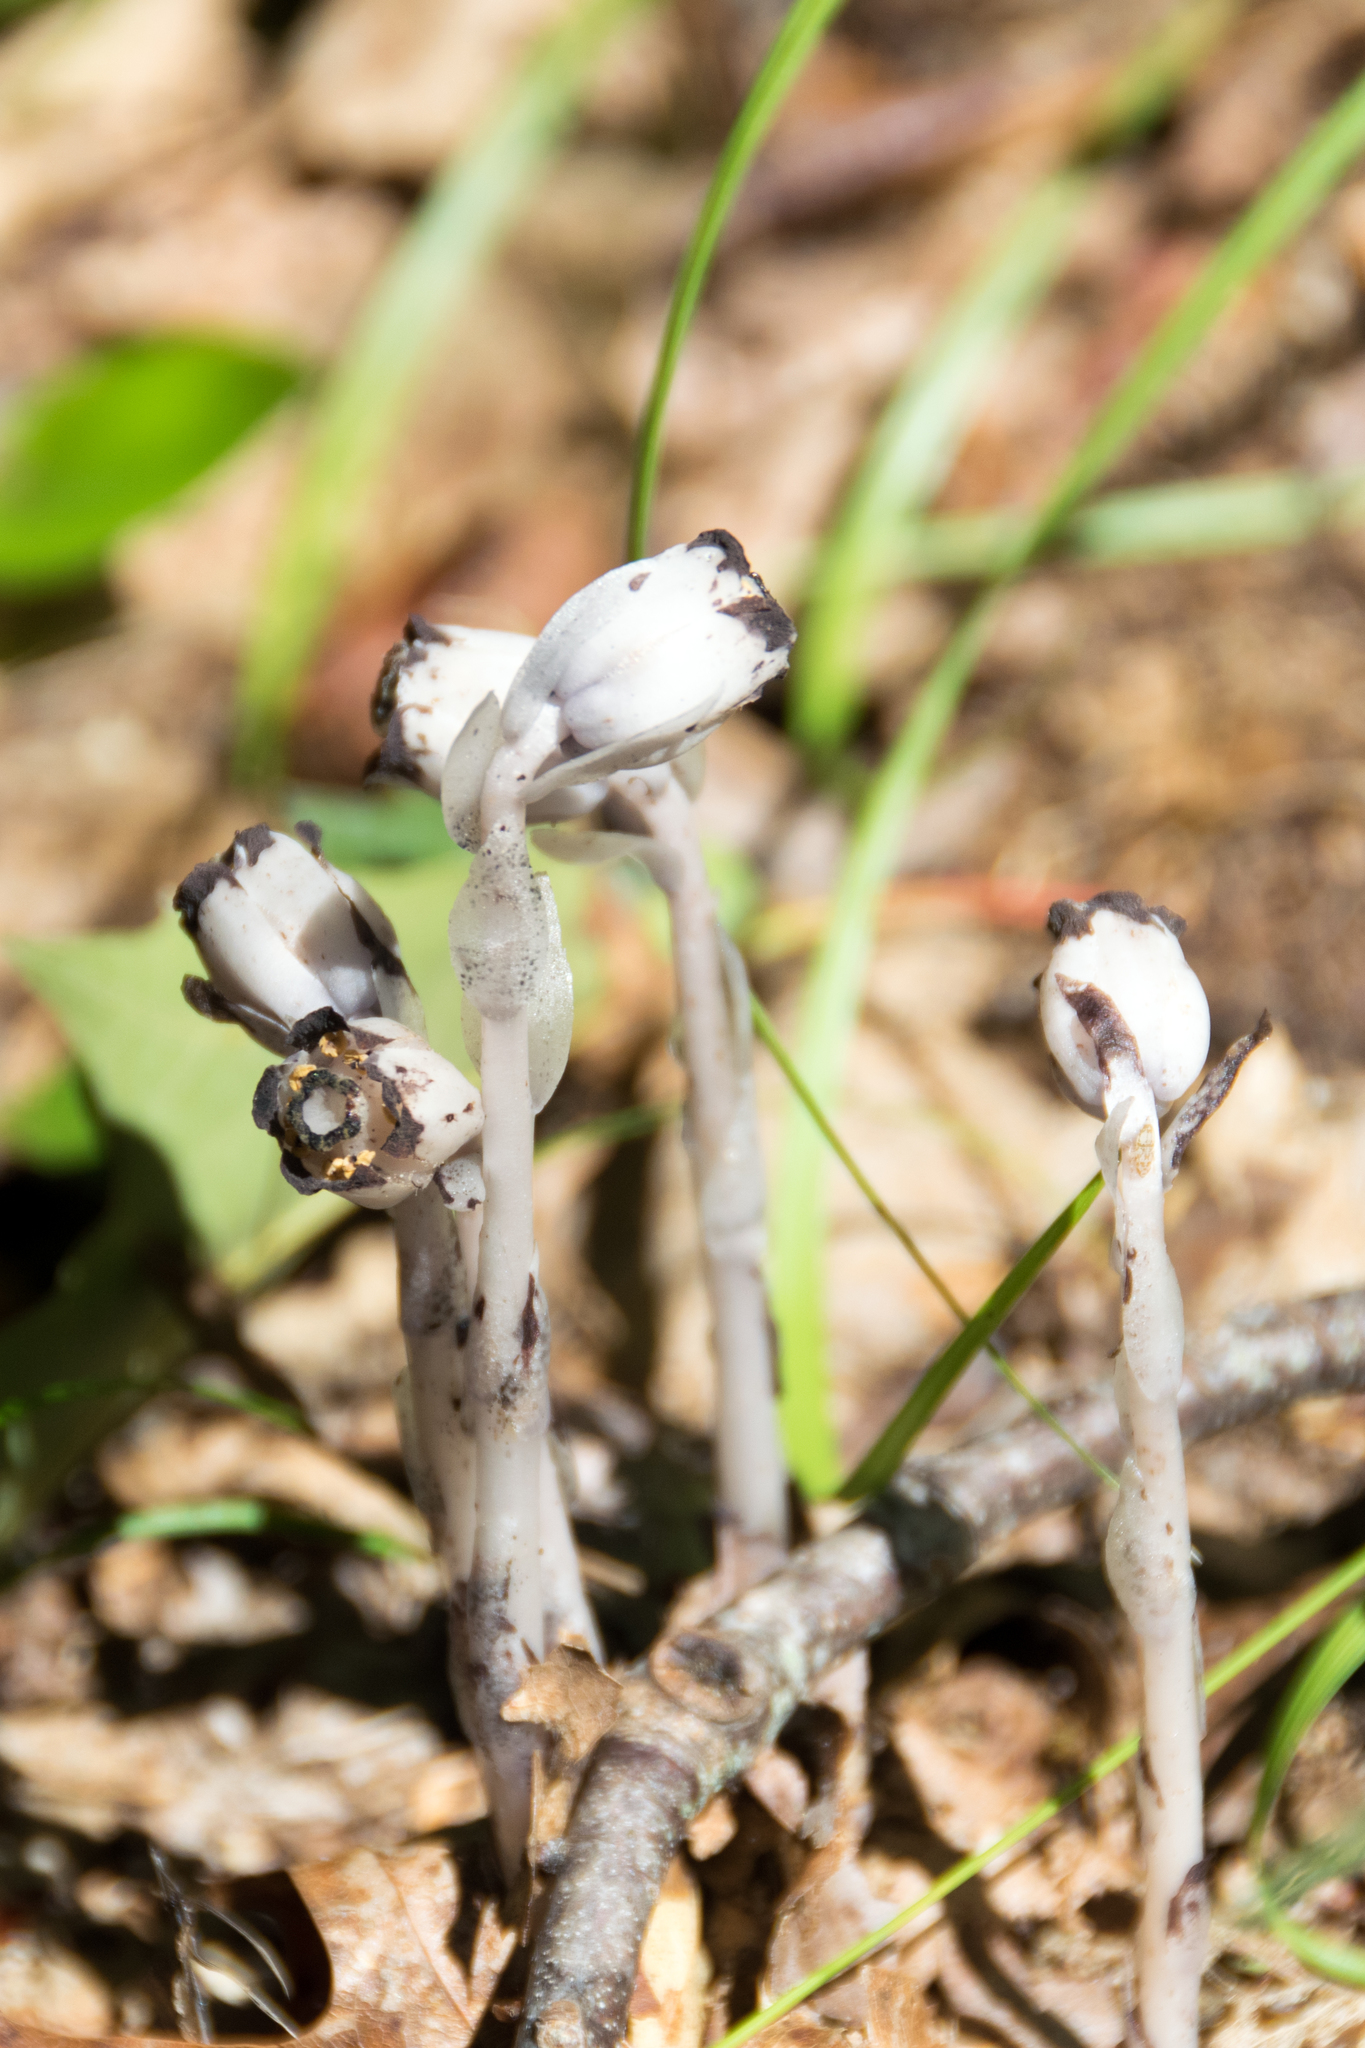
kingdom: Plantae
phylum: Tracheophyta
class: Magnoliopsida
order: Ericales
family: Ericaceae
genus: Monotropa
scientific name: Monotropa uniflora
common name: Convulsion root
